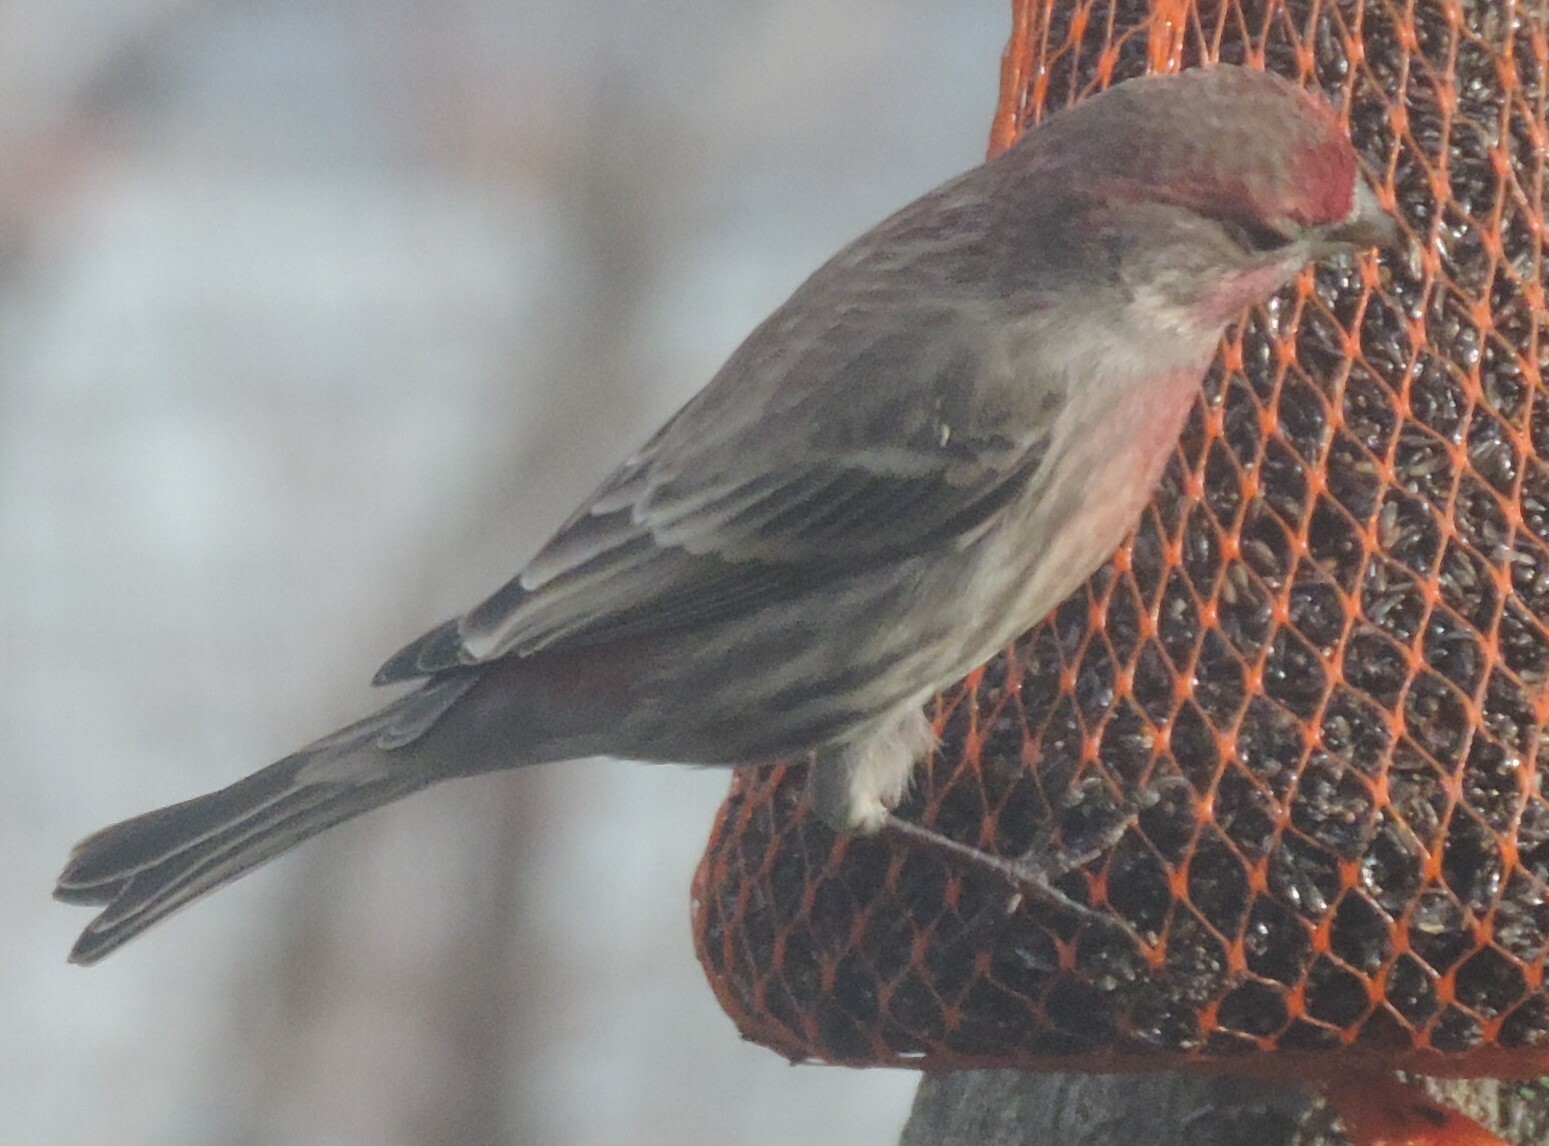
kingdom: Animalia
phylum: Chordata
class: Aves
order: Passeriformes
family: Fringillidae
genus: Haemorhous
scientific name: Haemorhous mexicanus
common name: House finch
